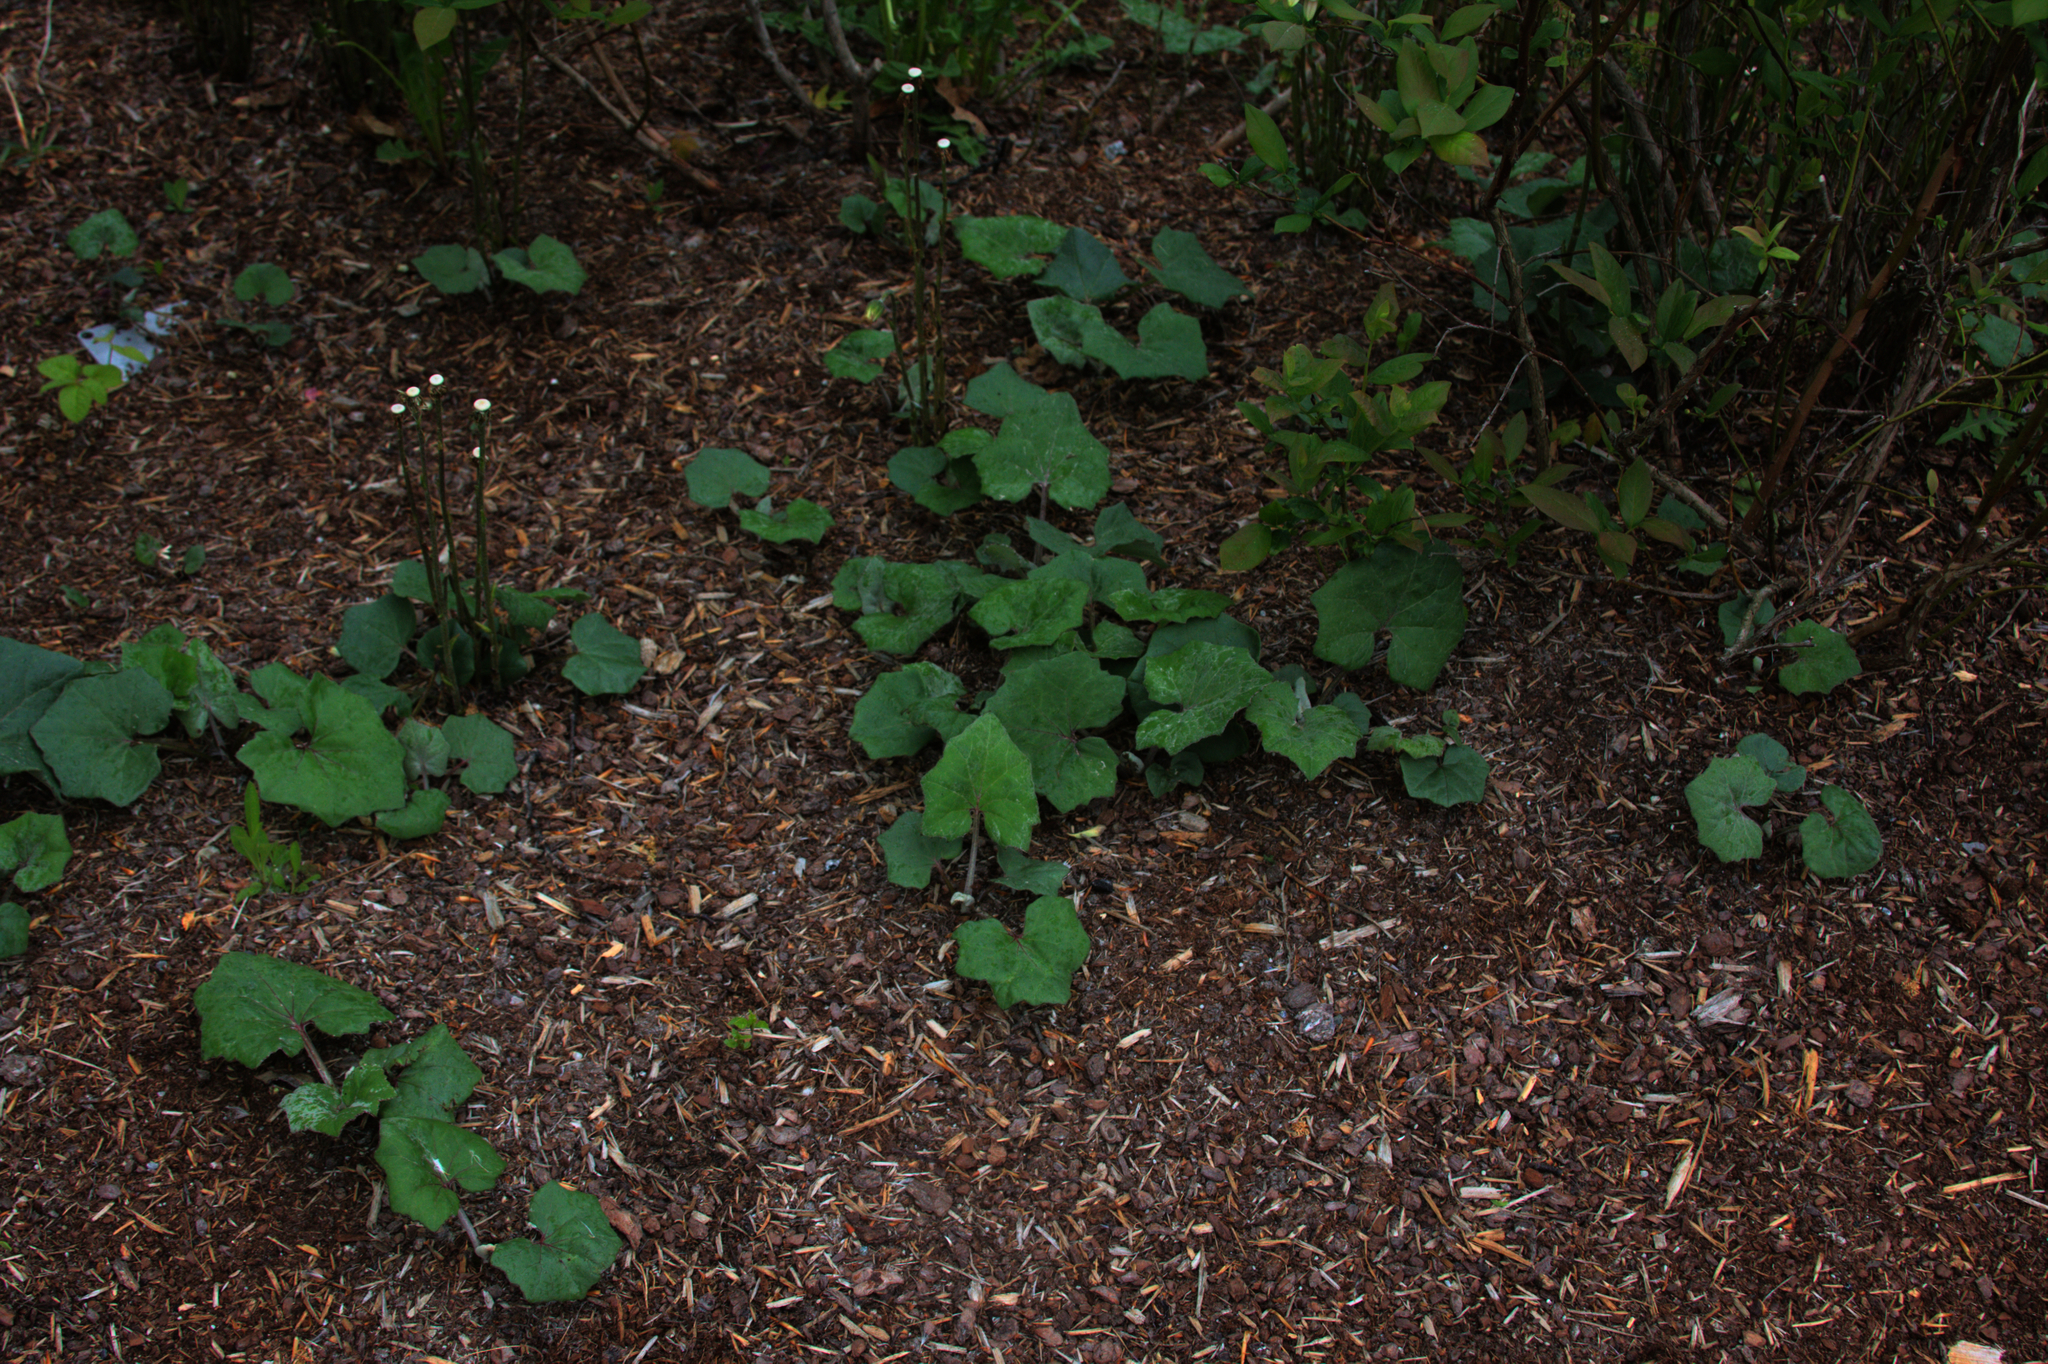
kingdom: Plantae
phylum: Tracheophyta
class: Magnoliopsida
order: Asterales
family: Asteraceae
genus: Tussilago
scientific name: Tussilago farfara
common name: Coltsfoot
